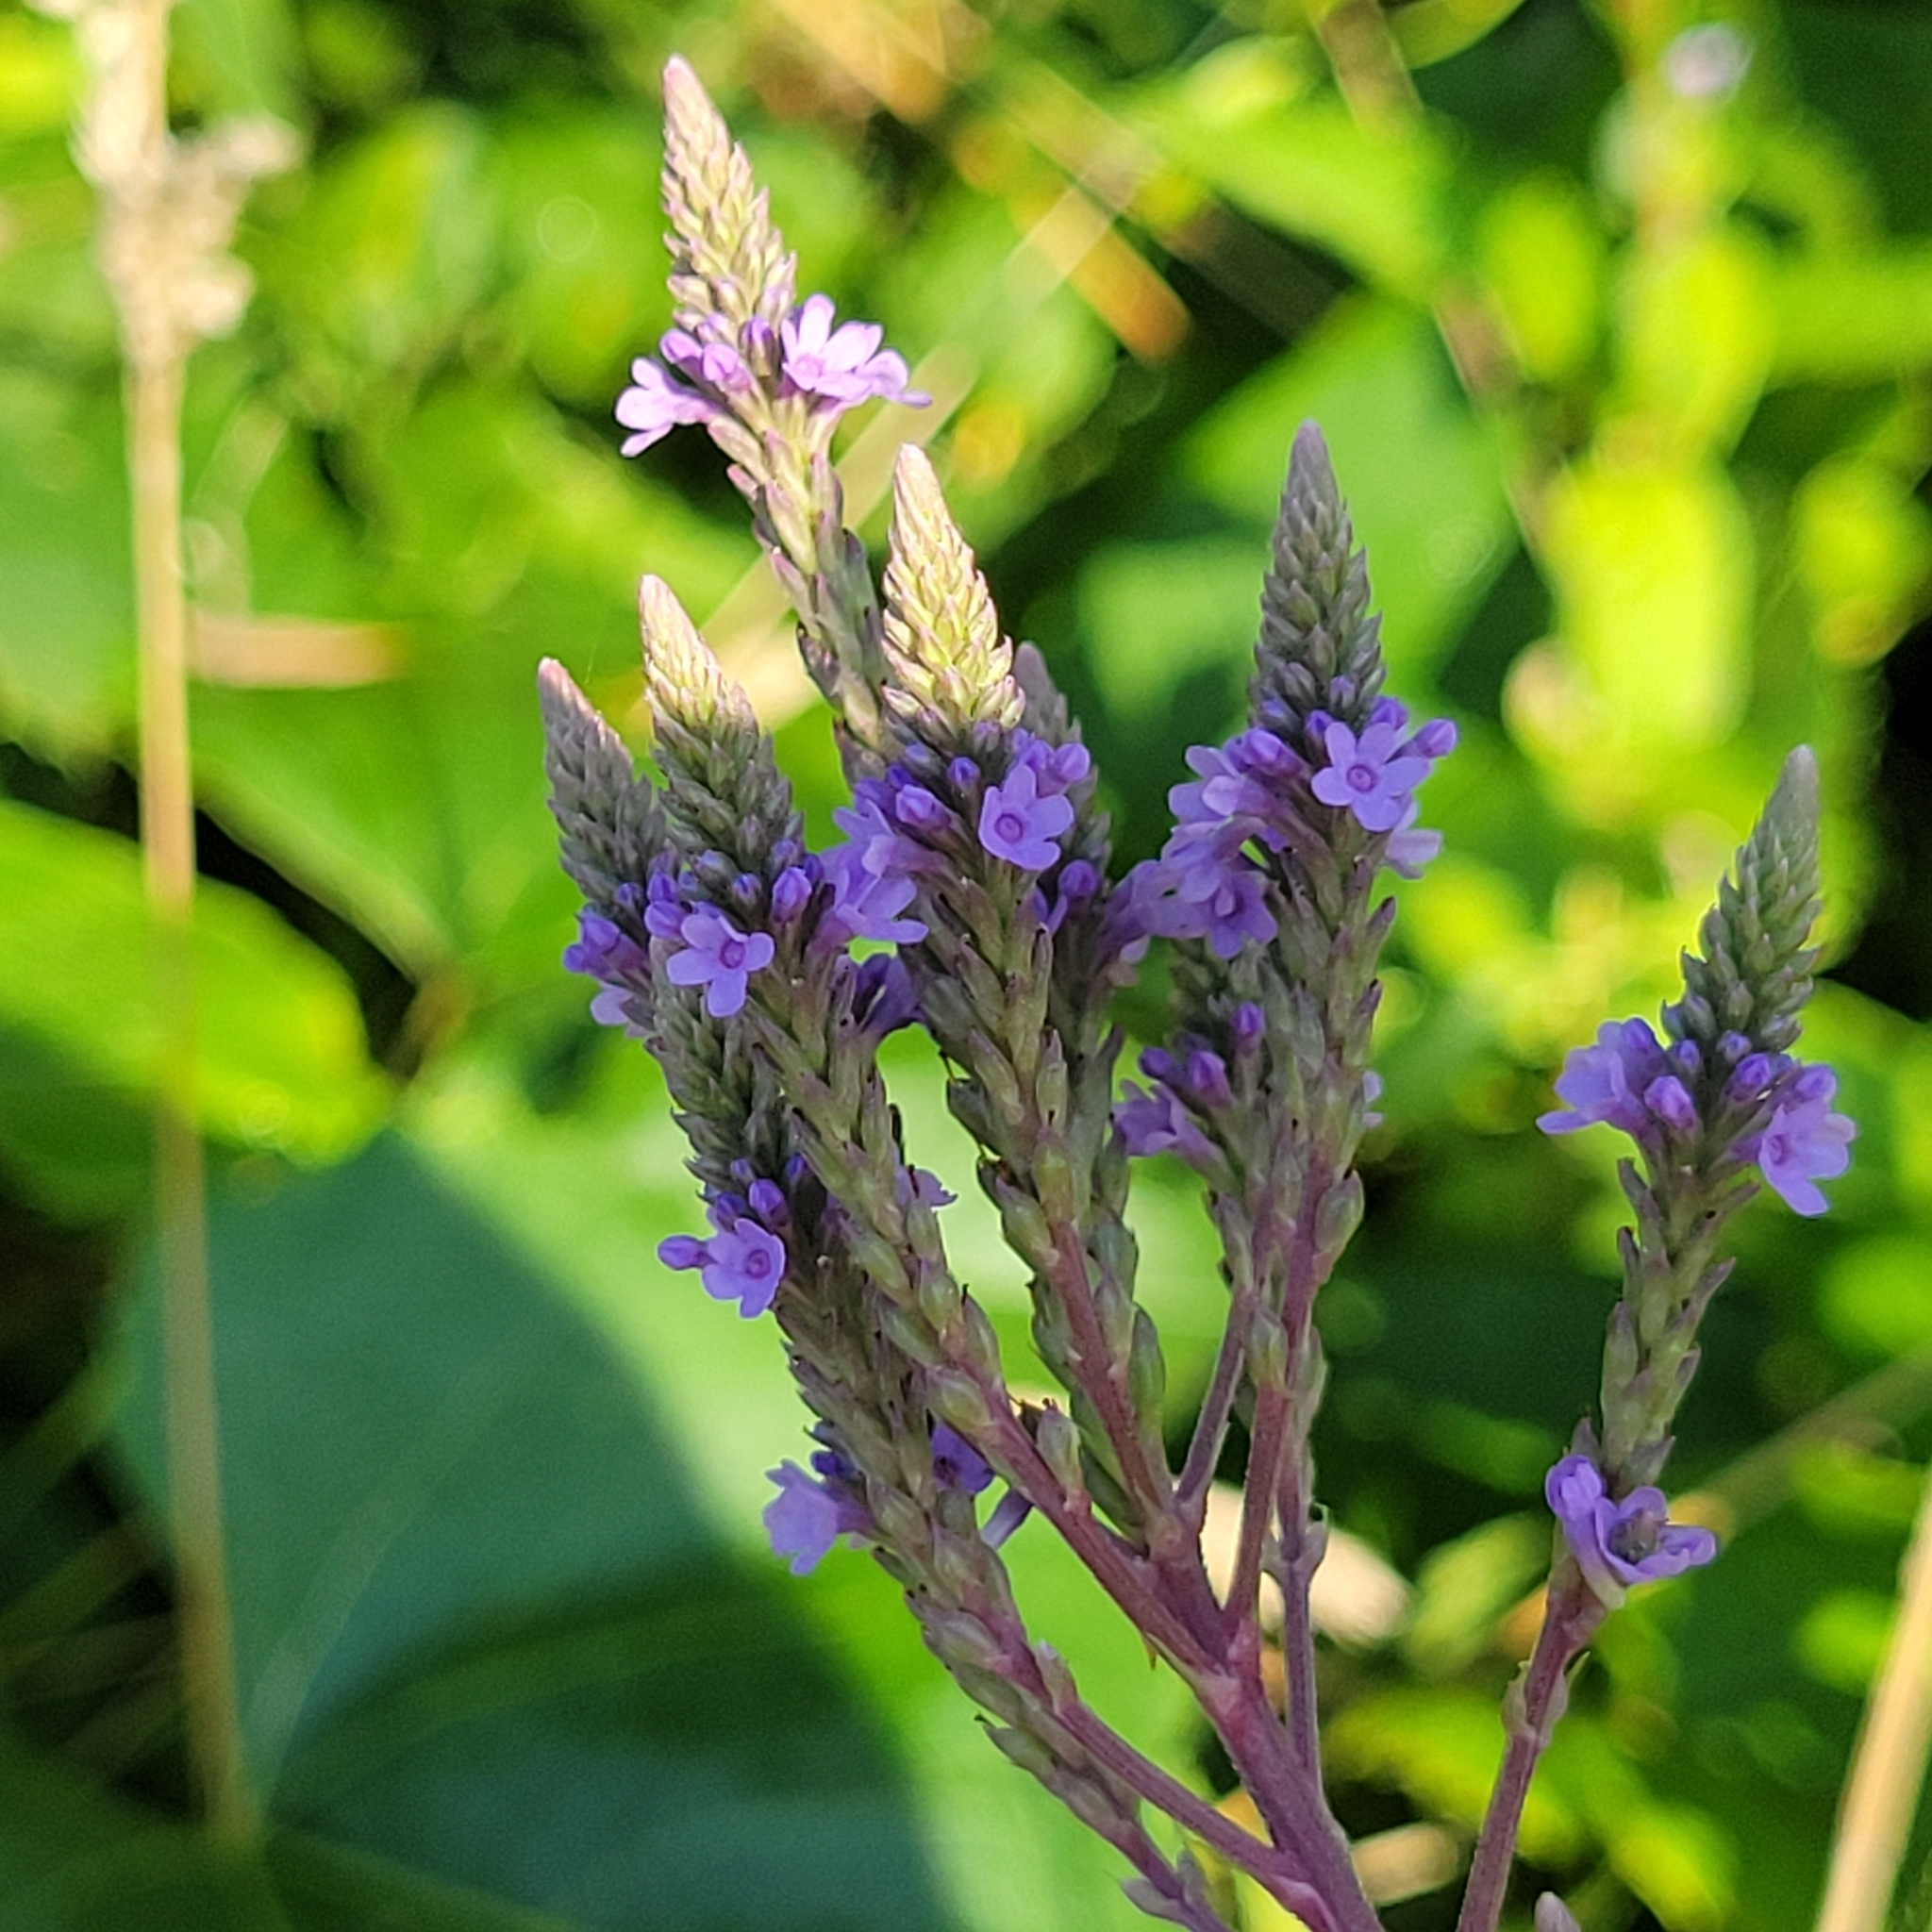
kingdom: Plantae
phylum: Tracheophyta
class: Magnoliopsida
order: Lamiales
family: Verbenaceae
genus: Verbena
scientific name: Verbena hastata
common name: American blue vervain
